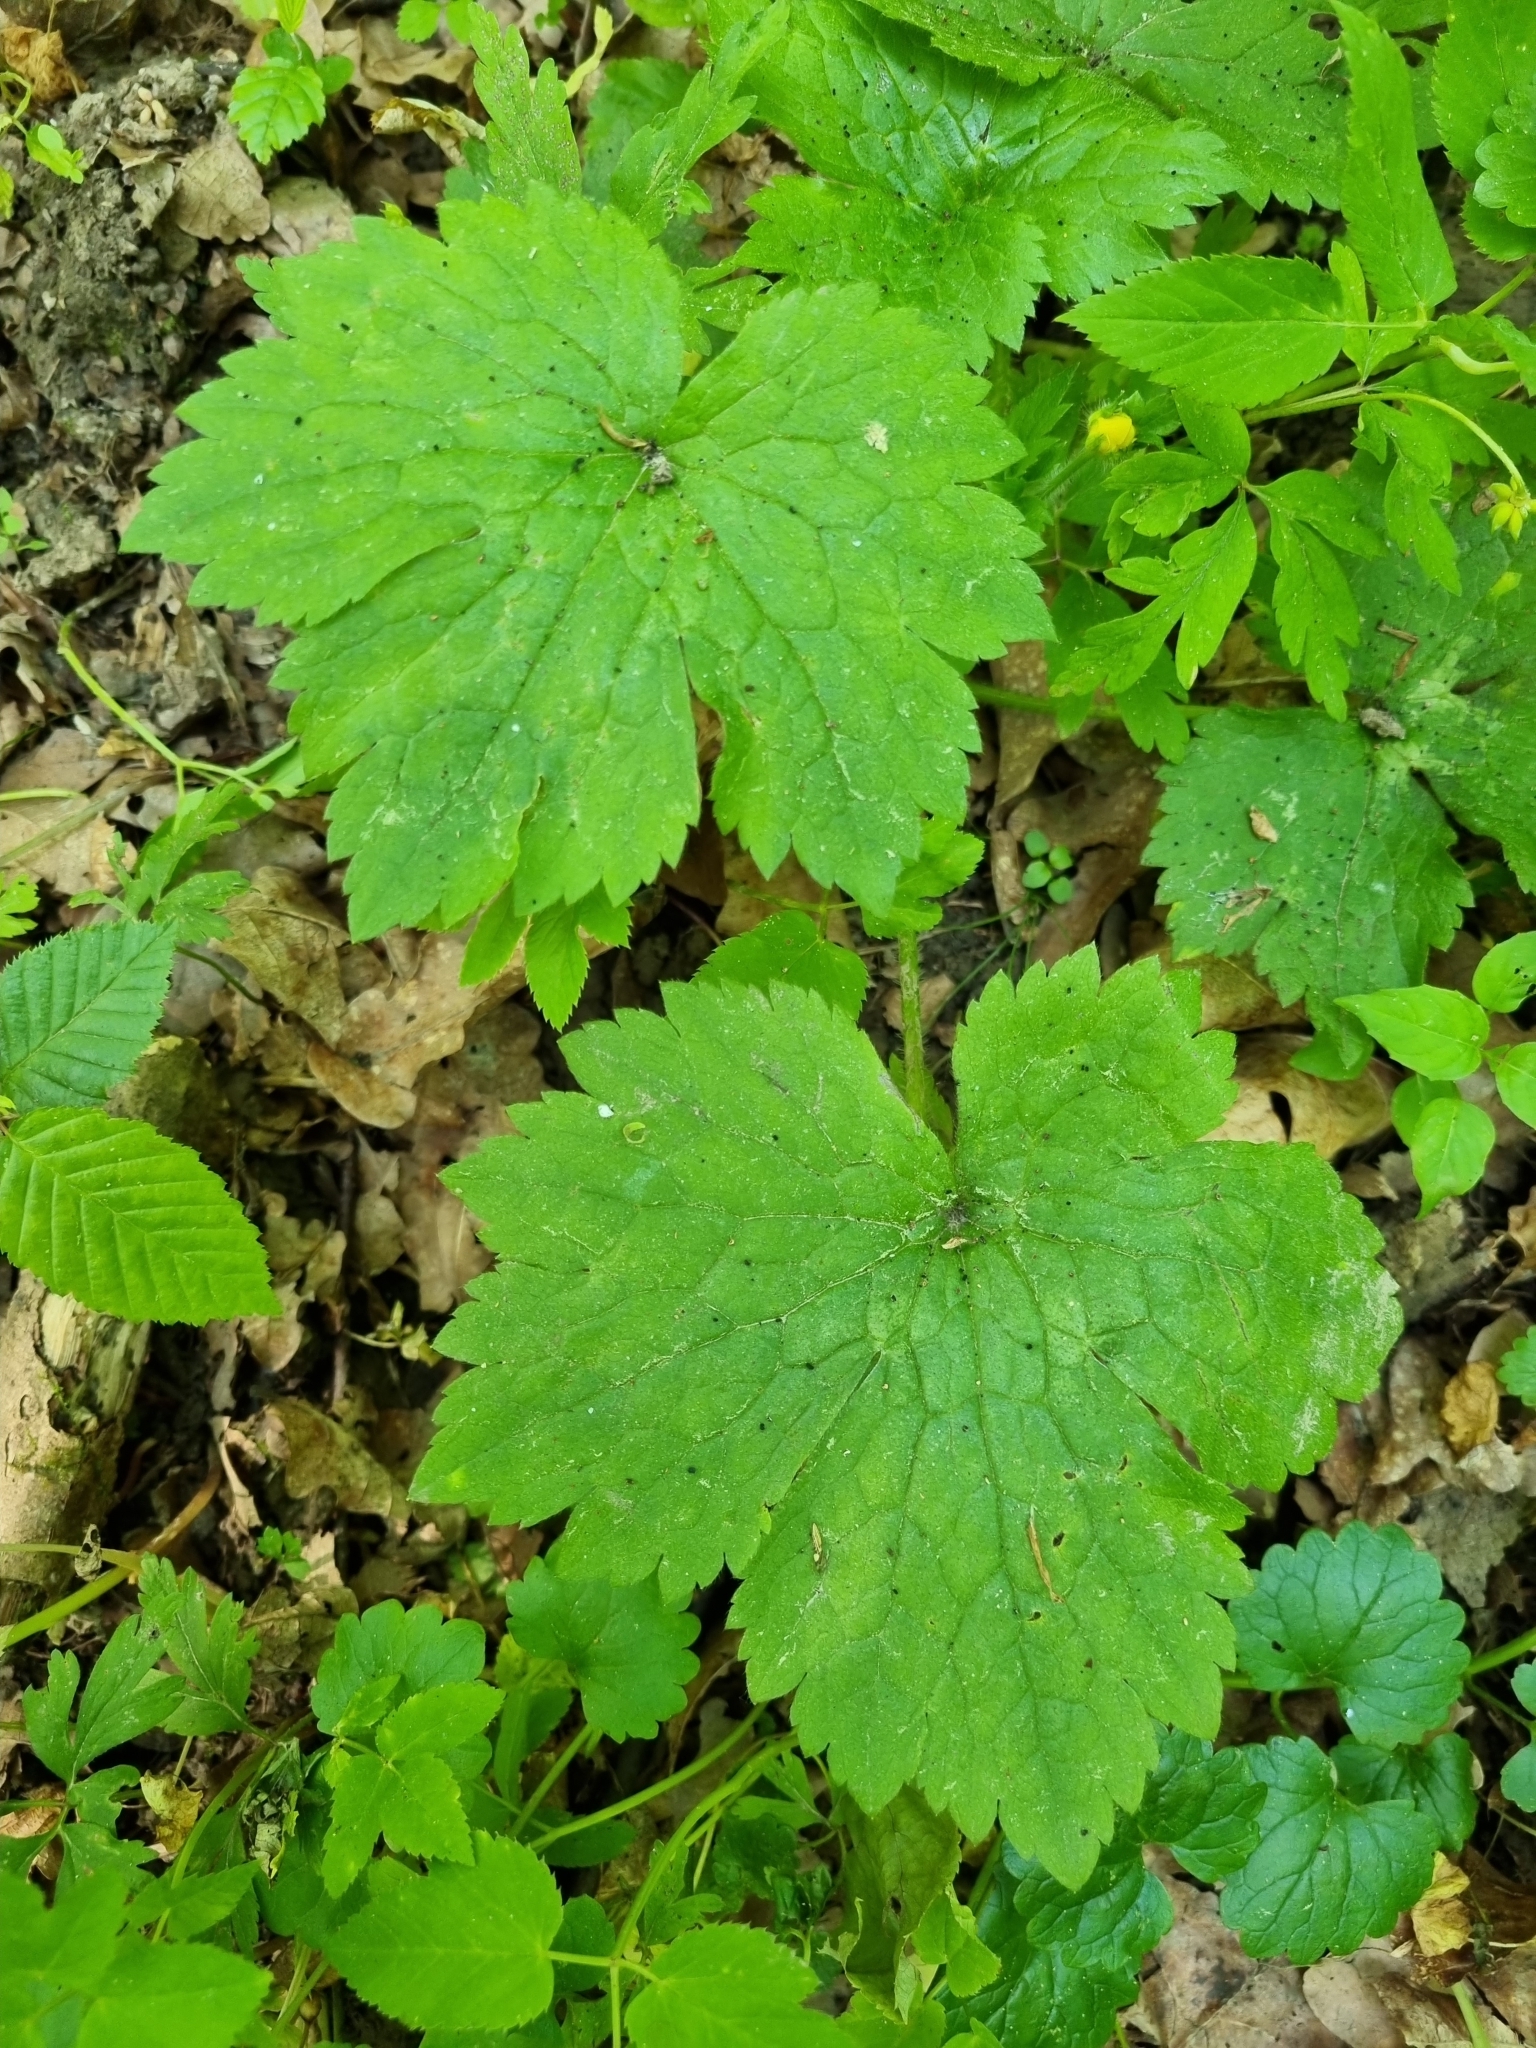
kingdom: Plantae
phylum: Tracheophyta
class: Magnoliopsida
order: Ranunculales
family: Ranunculaceae
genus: Ranunculus
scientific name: Ranunculus lanuginosus
